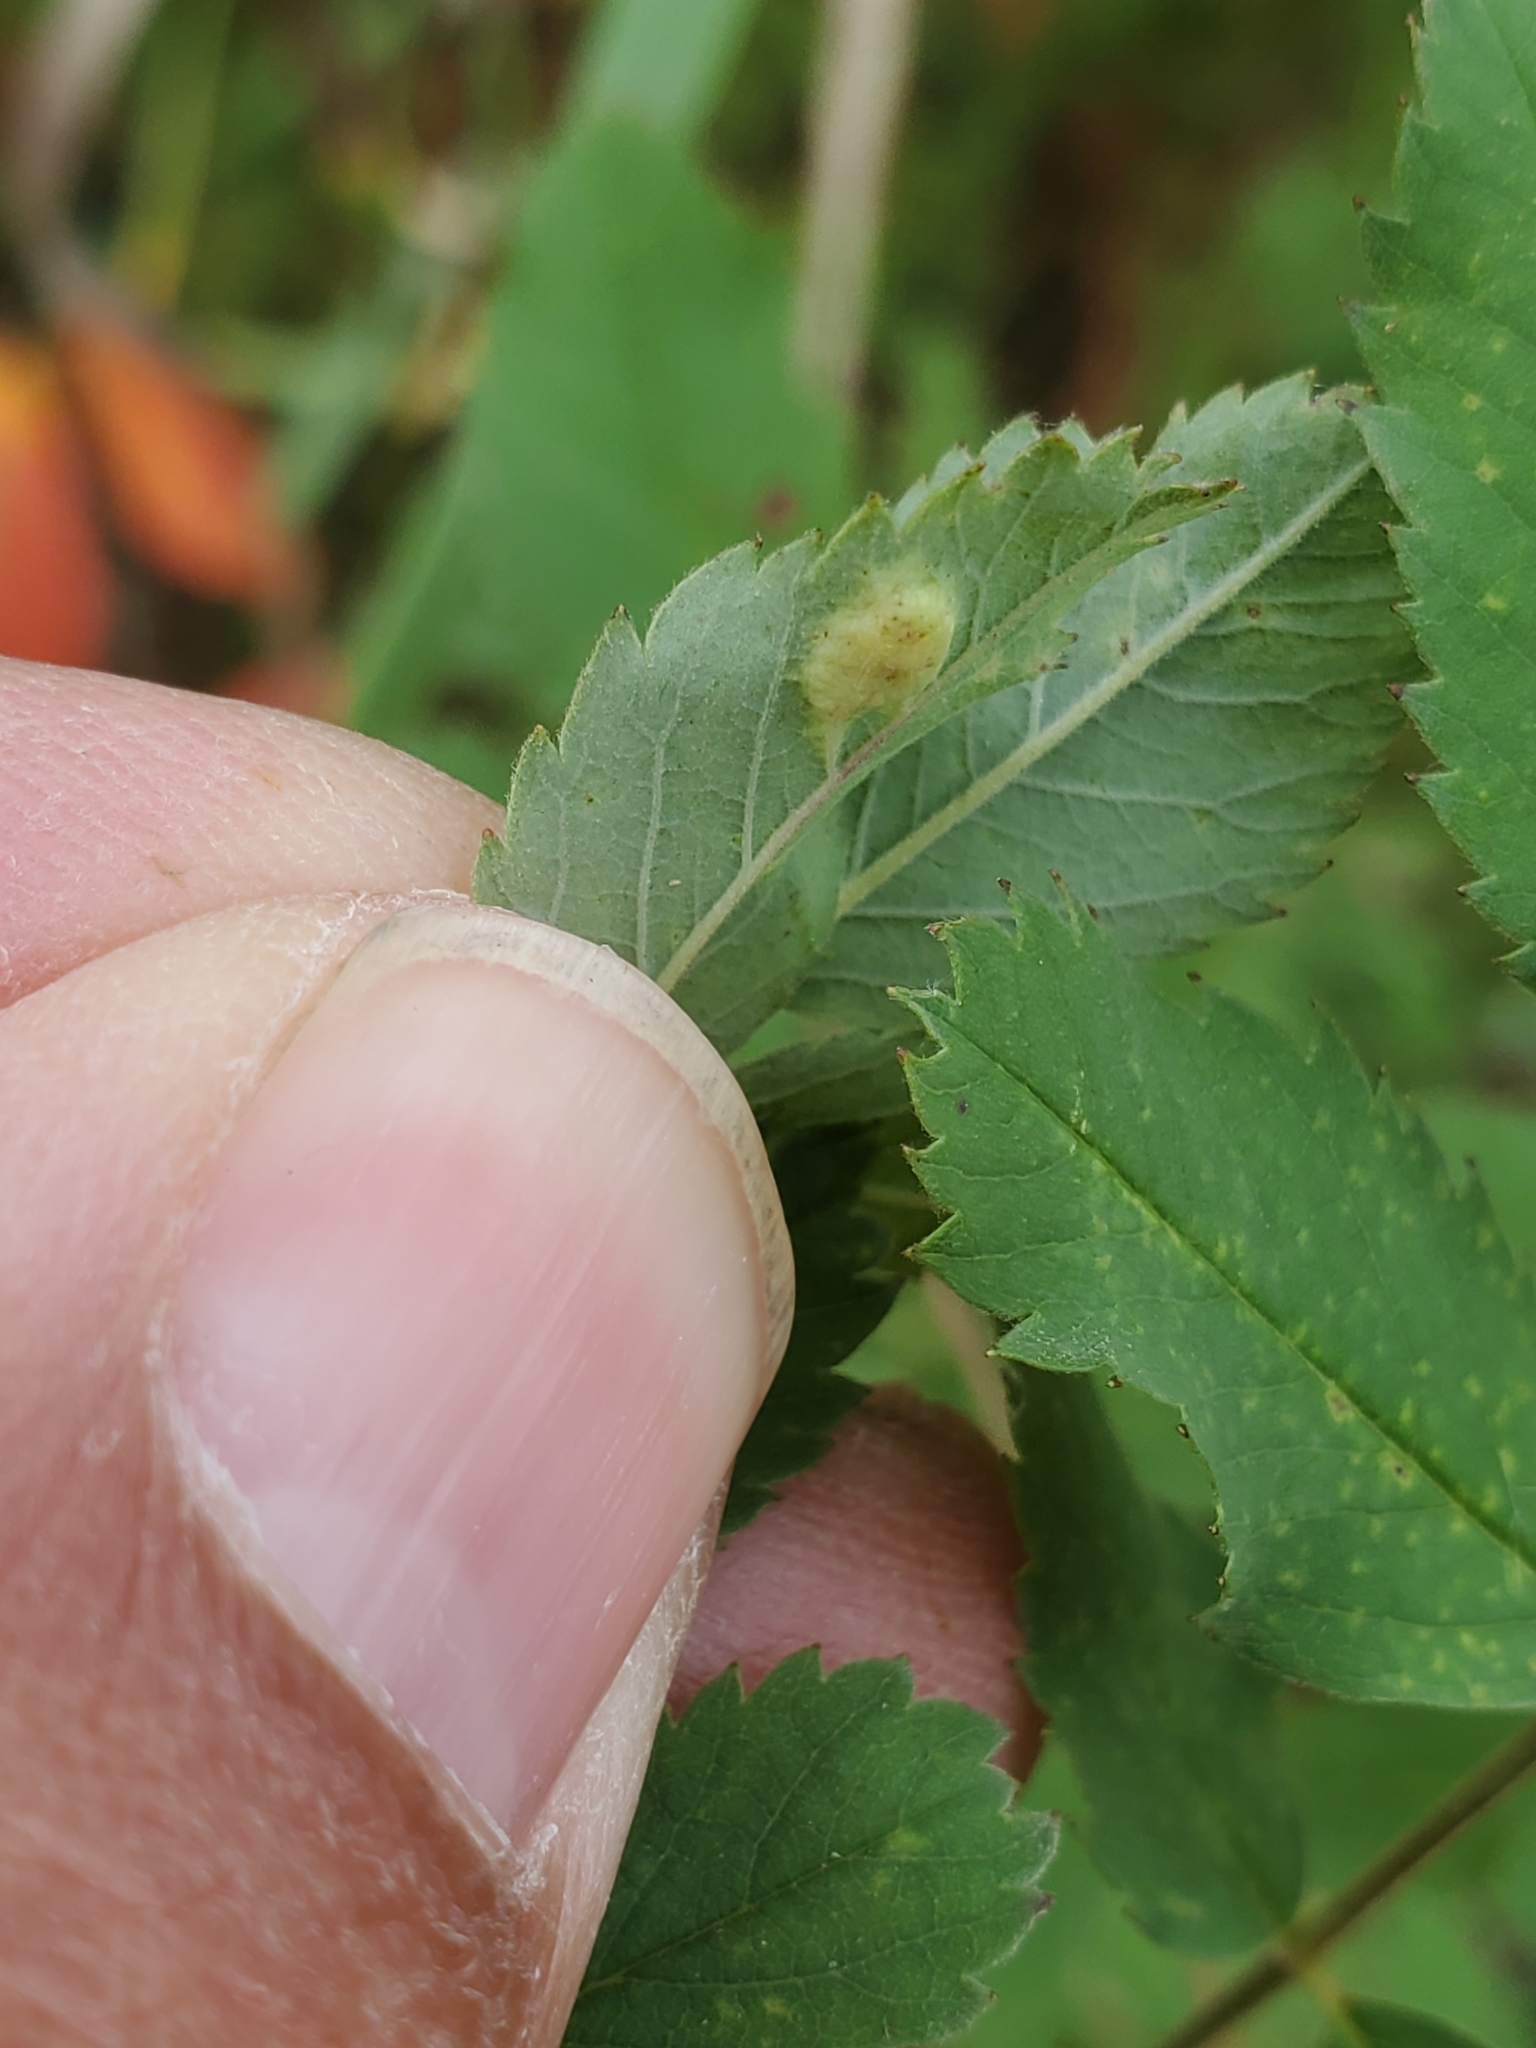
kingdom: Animalia
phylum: Arthropoda
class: Insecta
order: Hymenoptera
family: Cynipidae
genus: Diplolepis
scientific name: Diplolepis rosaefolii
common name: Blister-gall wasp
